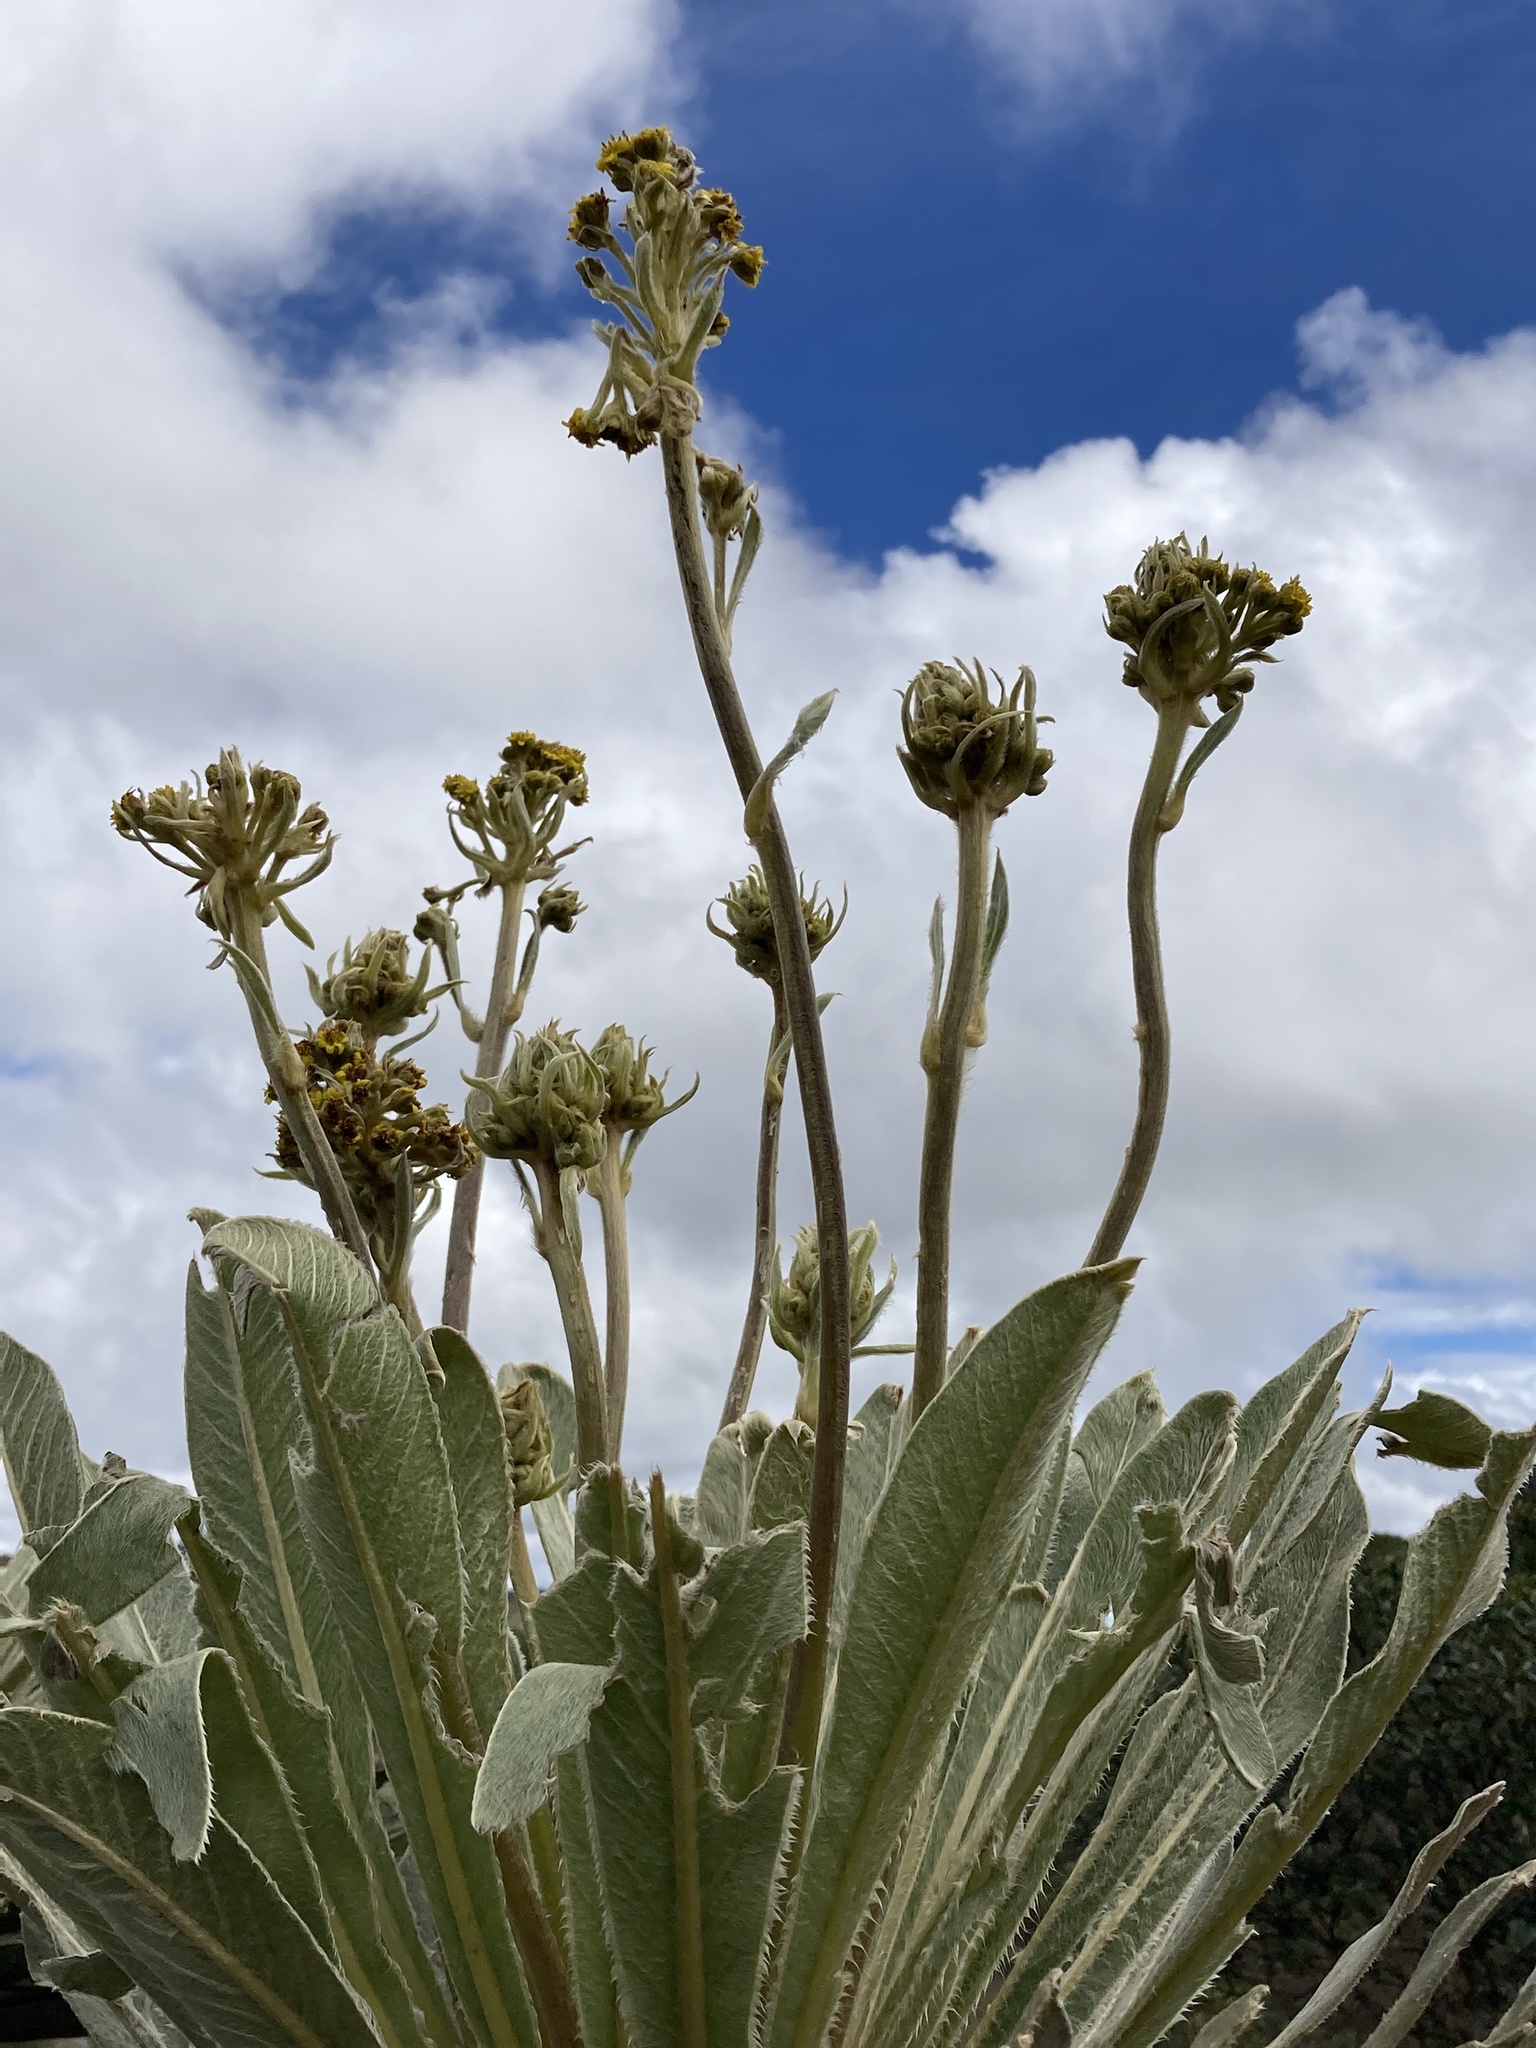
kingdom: Plantae
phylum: Tracheophyta
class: Magnoliopsida
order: Asterales
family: Asteraceae
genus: Espeletia
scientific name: Espeletia corymbosa
